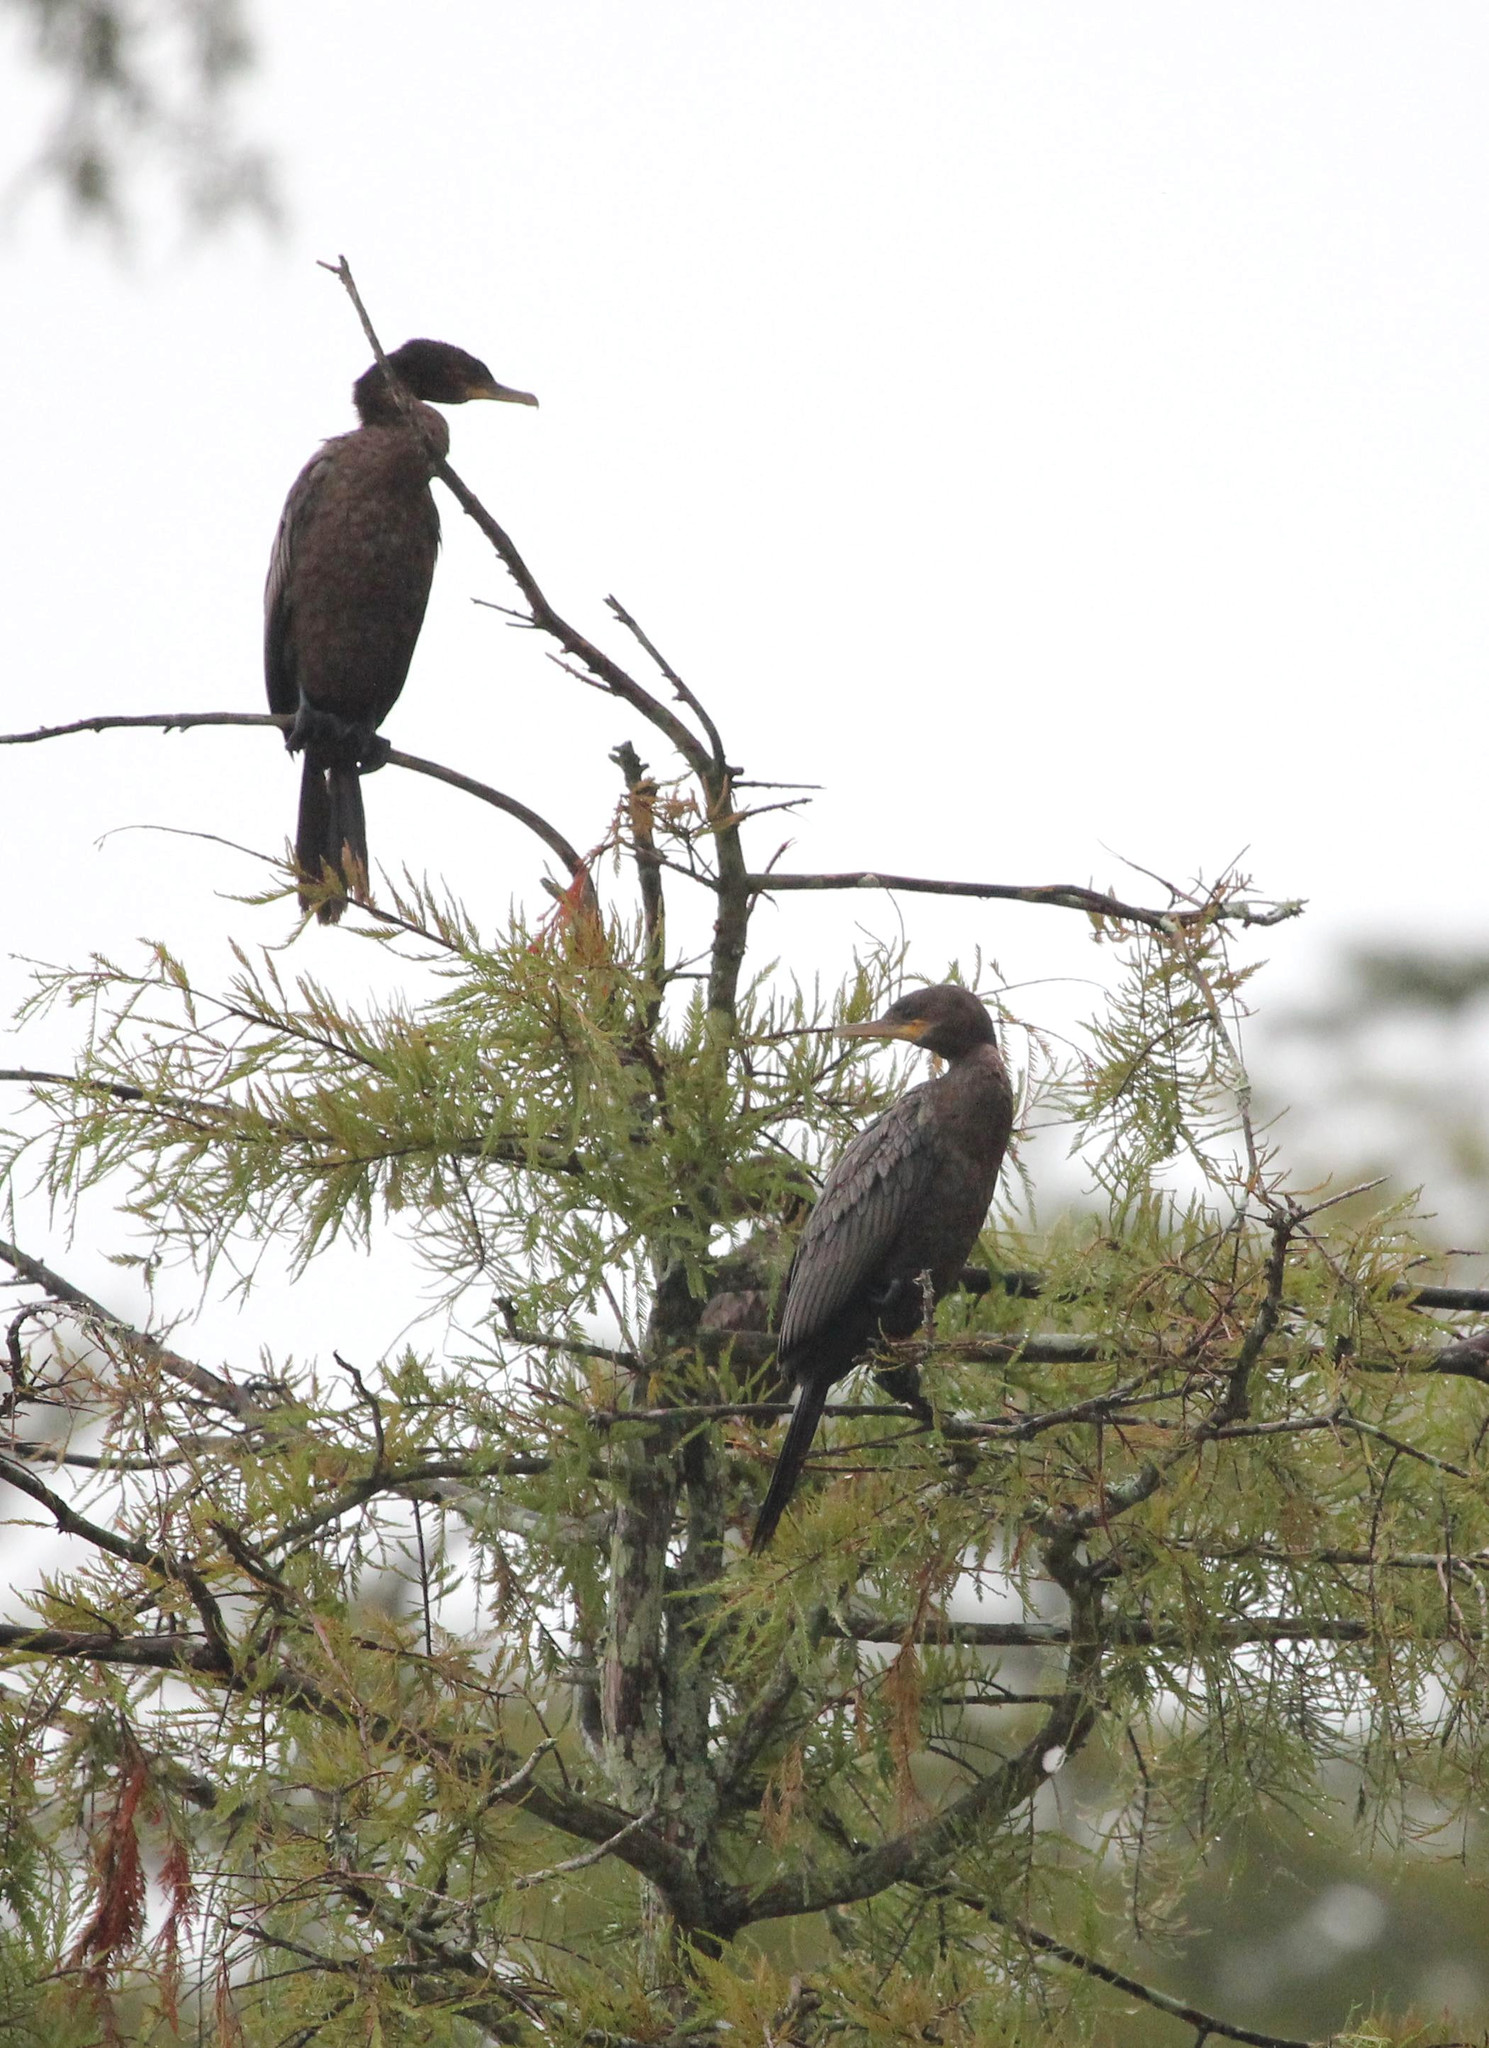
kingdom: Animalia
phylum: Chordata
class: Aves
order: Suliformes
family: Phalacrocoracidae
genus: Phalacrocorax
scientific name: Phalacrocorax brasilianus
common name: Neotropic cormorant
